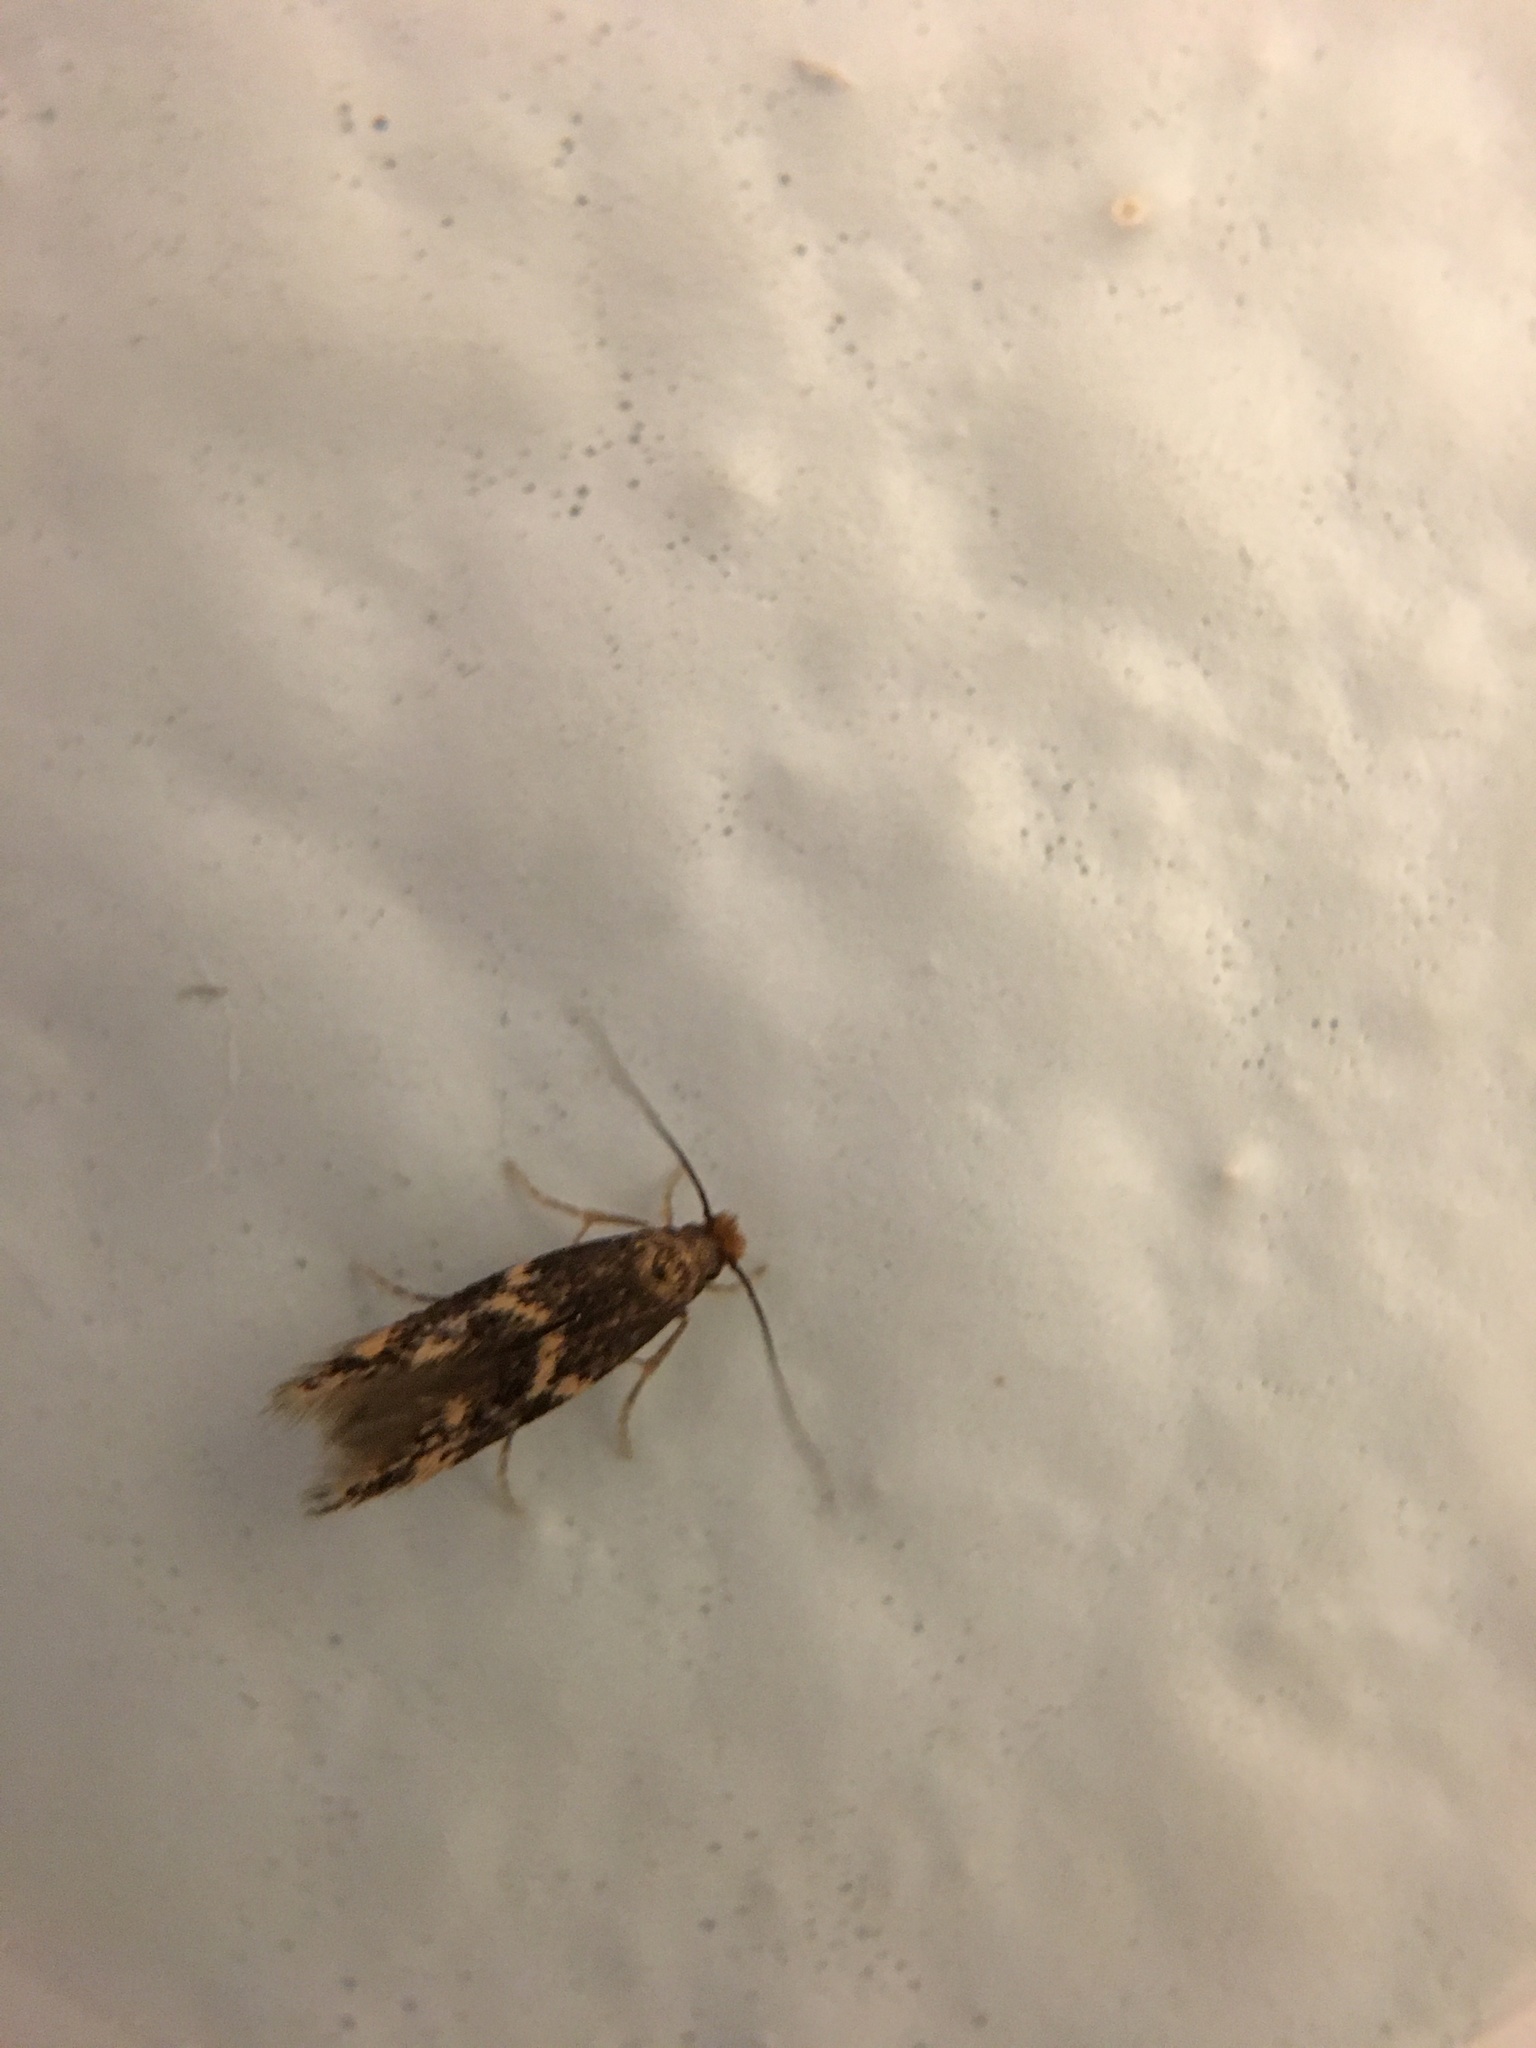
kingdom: Animalia
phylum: Arthropoda
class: Insecta
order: Lepidoptera
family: Tineidae
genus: Oinophila
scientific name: Oinophila v-flava
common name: Yellow v moth
